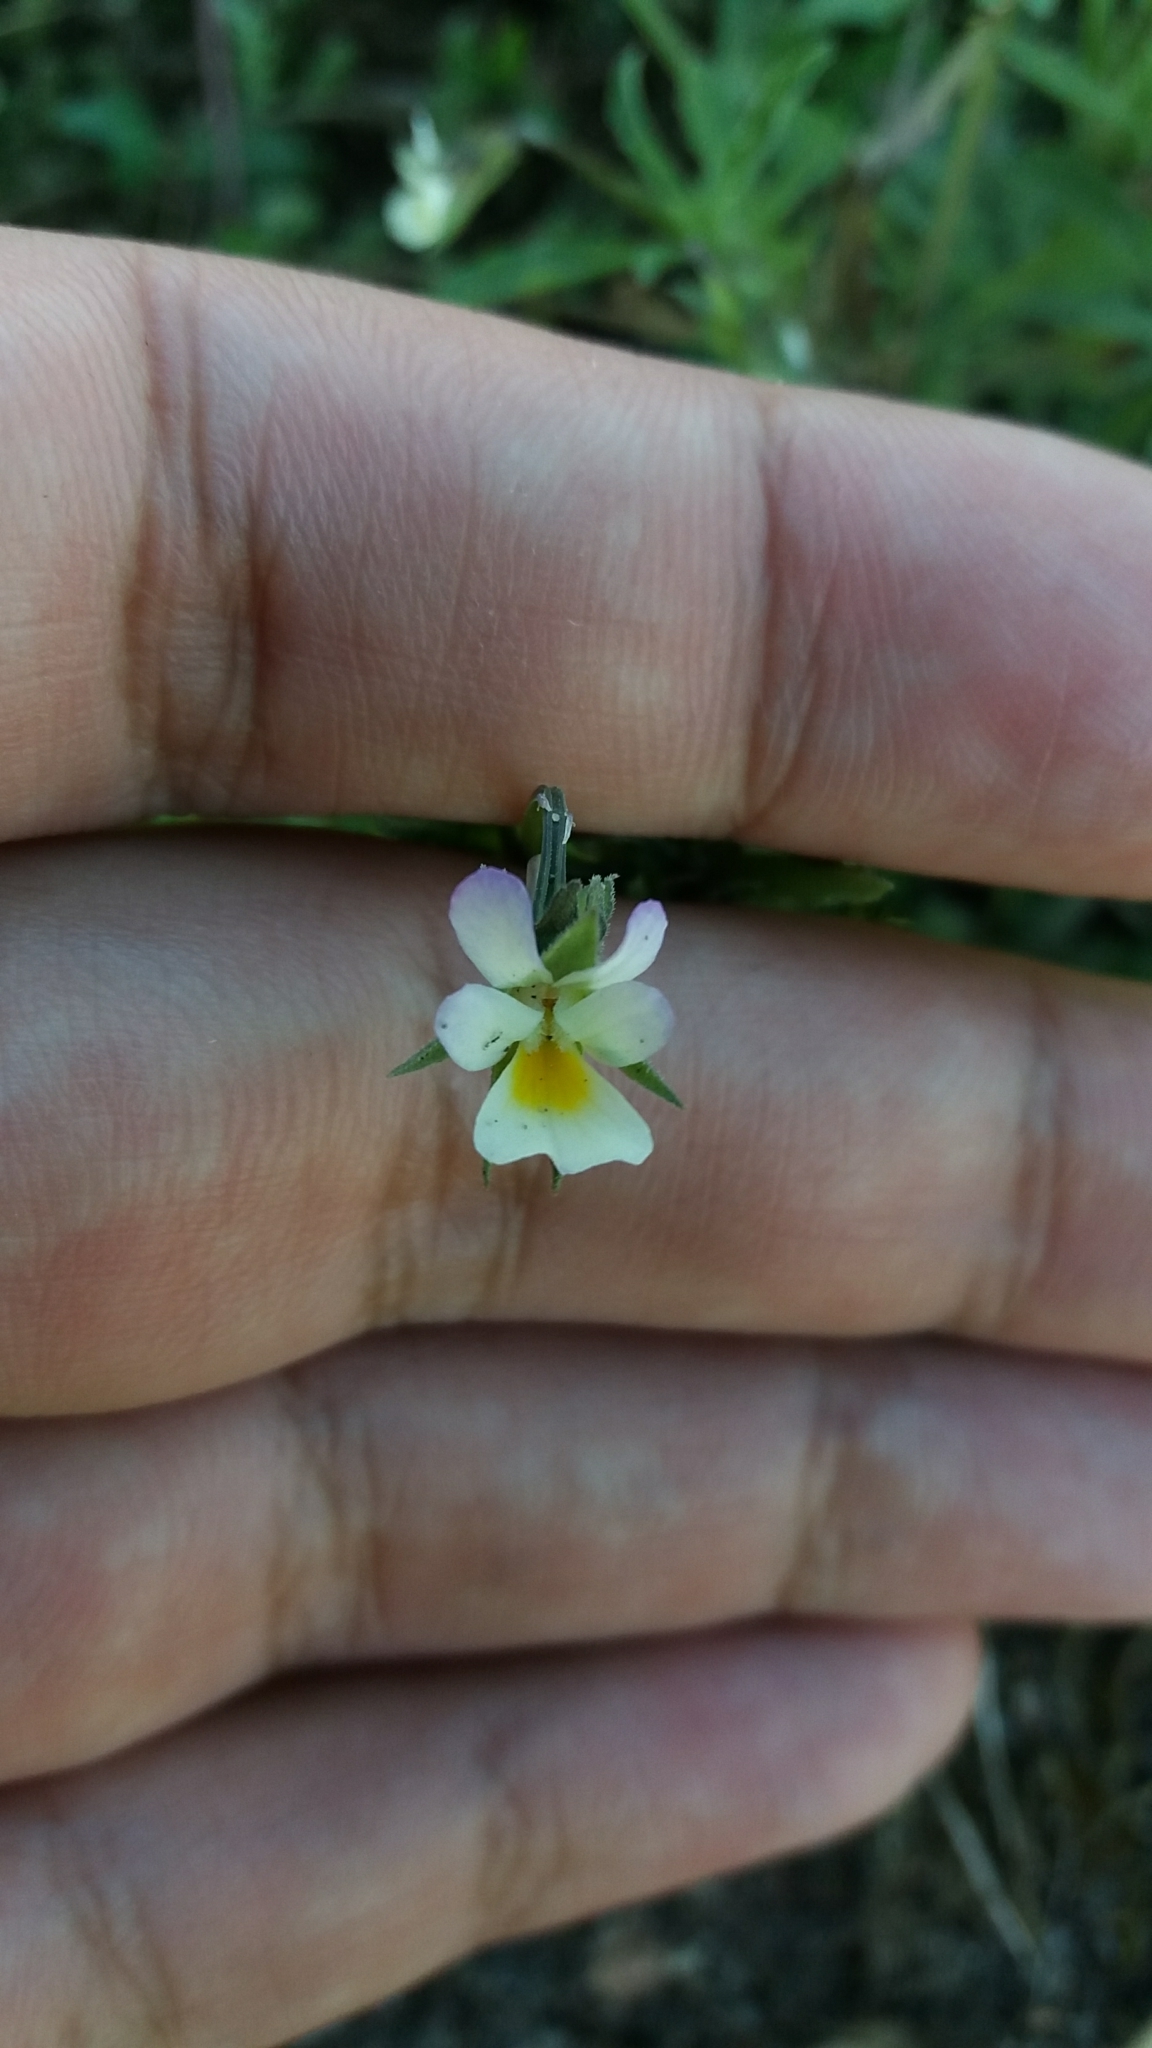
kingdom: Plantae
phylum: Tracheophyta
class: Magnoliopsida
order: Malpighiales
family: Violaceae
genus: Viola
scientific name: Viola arvensis
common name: Field pansy
